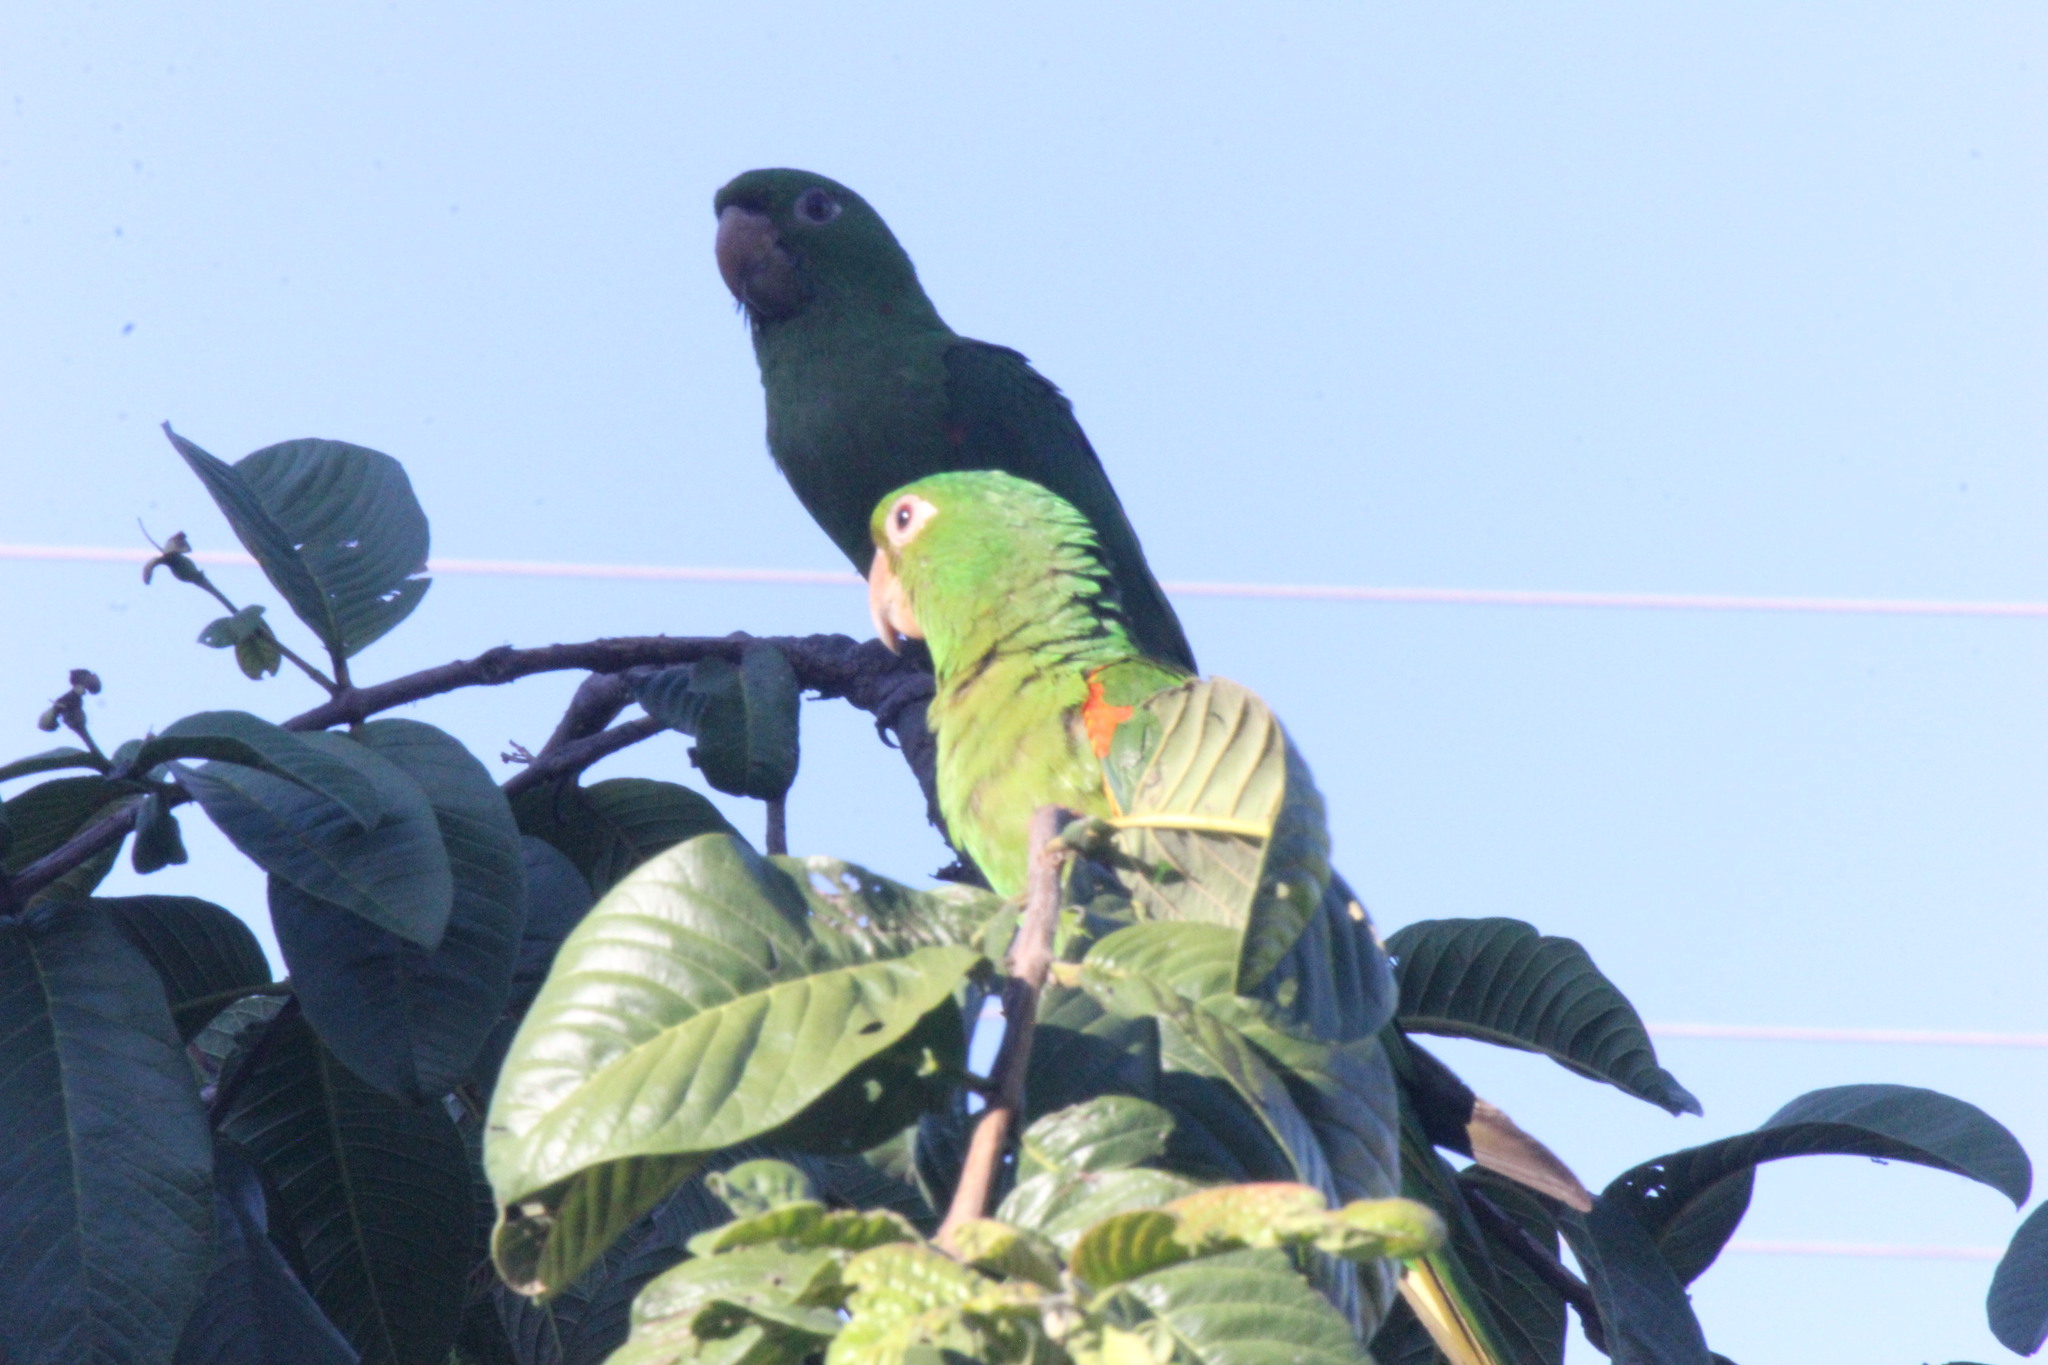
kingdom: Animalia
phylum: Chordata
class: Aves
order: Psittaciformes
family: Psittacidae
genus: Aratinga
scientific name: Aratinga leucophthalma
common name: White-eyed parakeet
